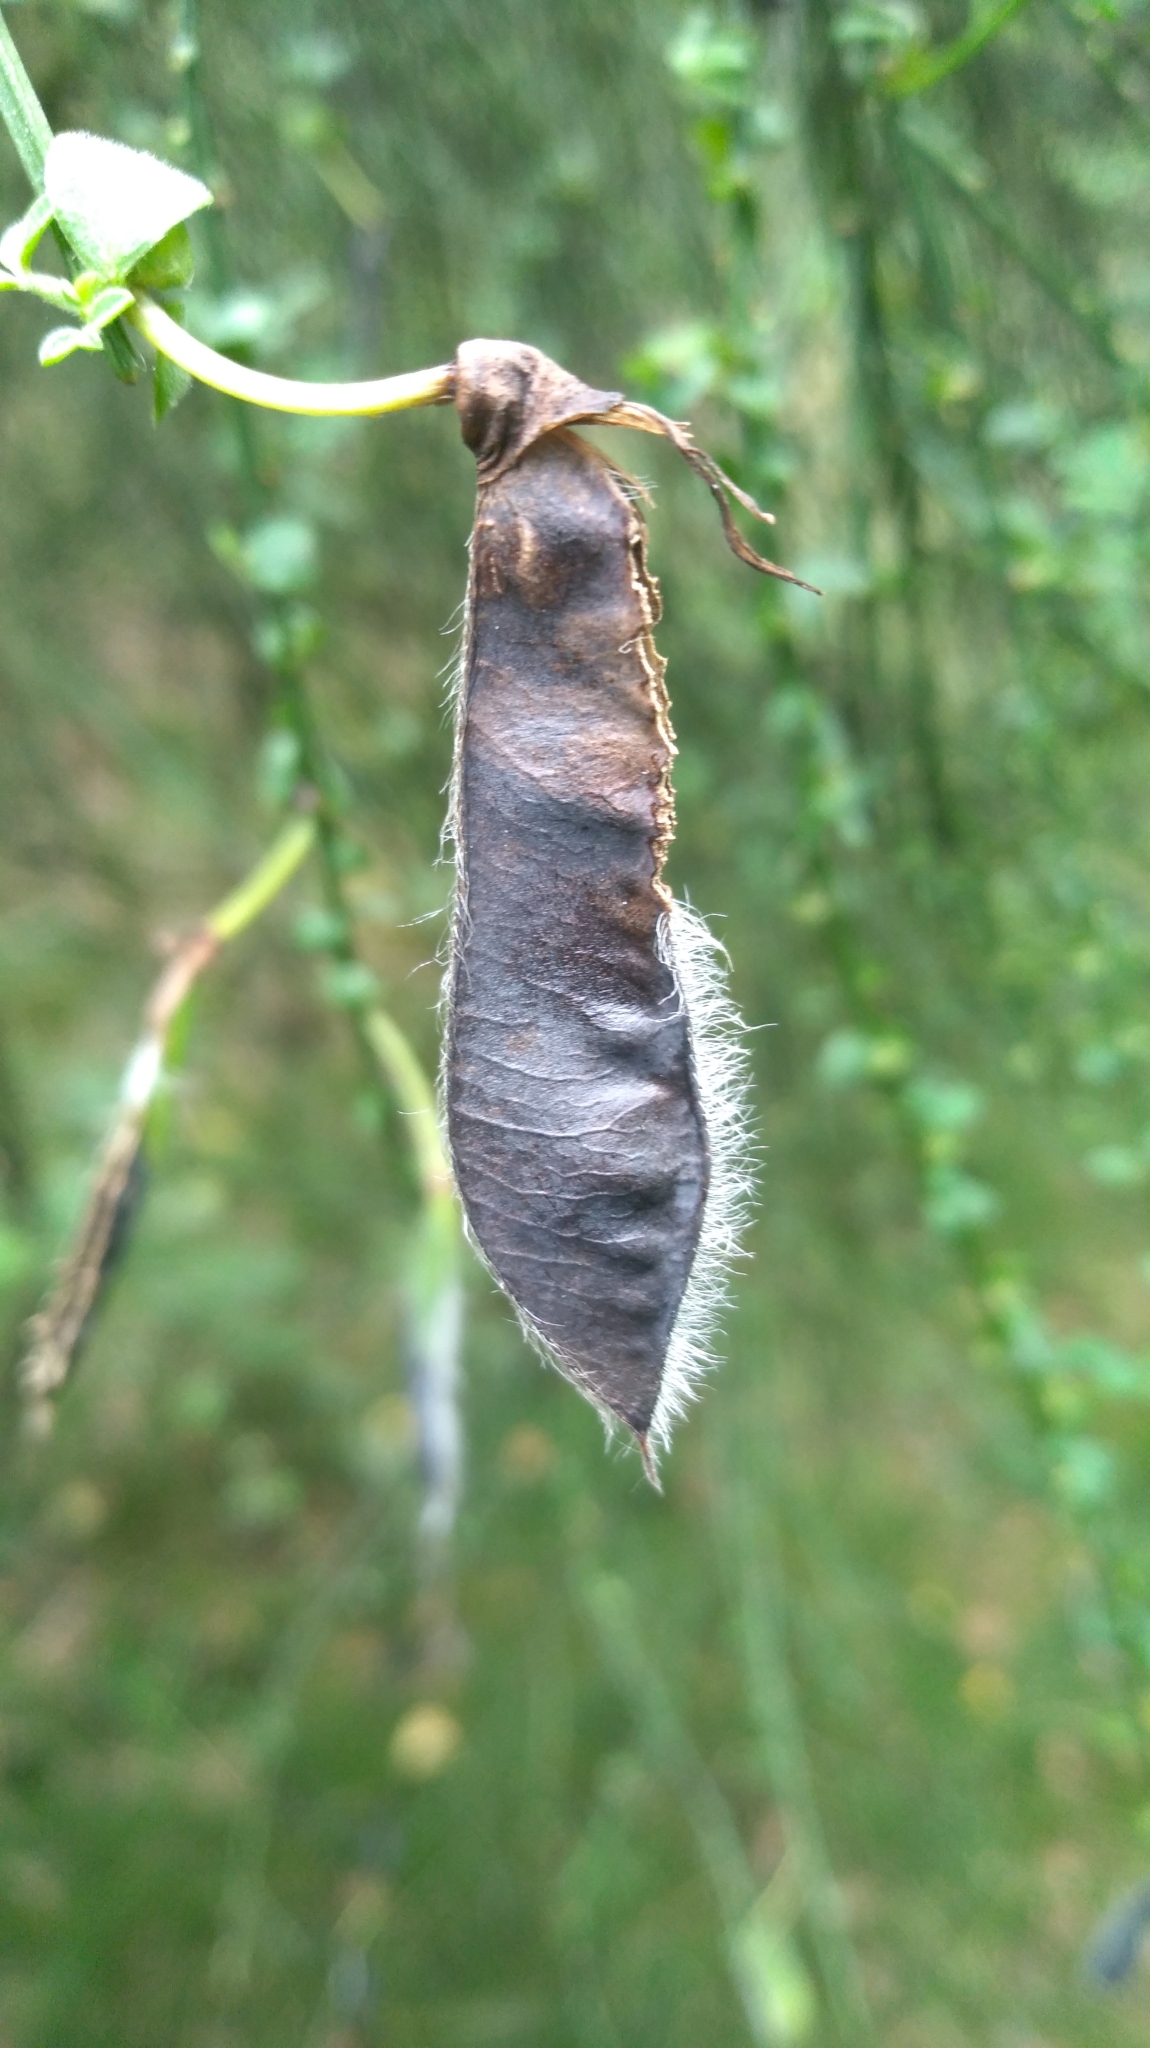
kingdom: Plantae
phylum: Tracheophyta
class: Magnoliopsida
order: Fabales
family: Fabaceae
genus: Cytisus
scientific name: Cytisus scoparius
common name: Scotch broom
